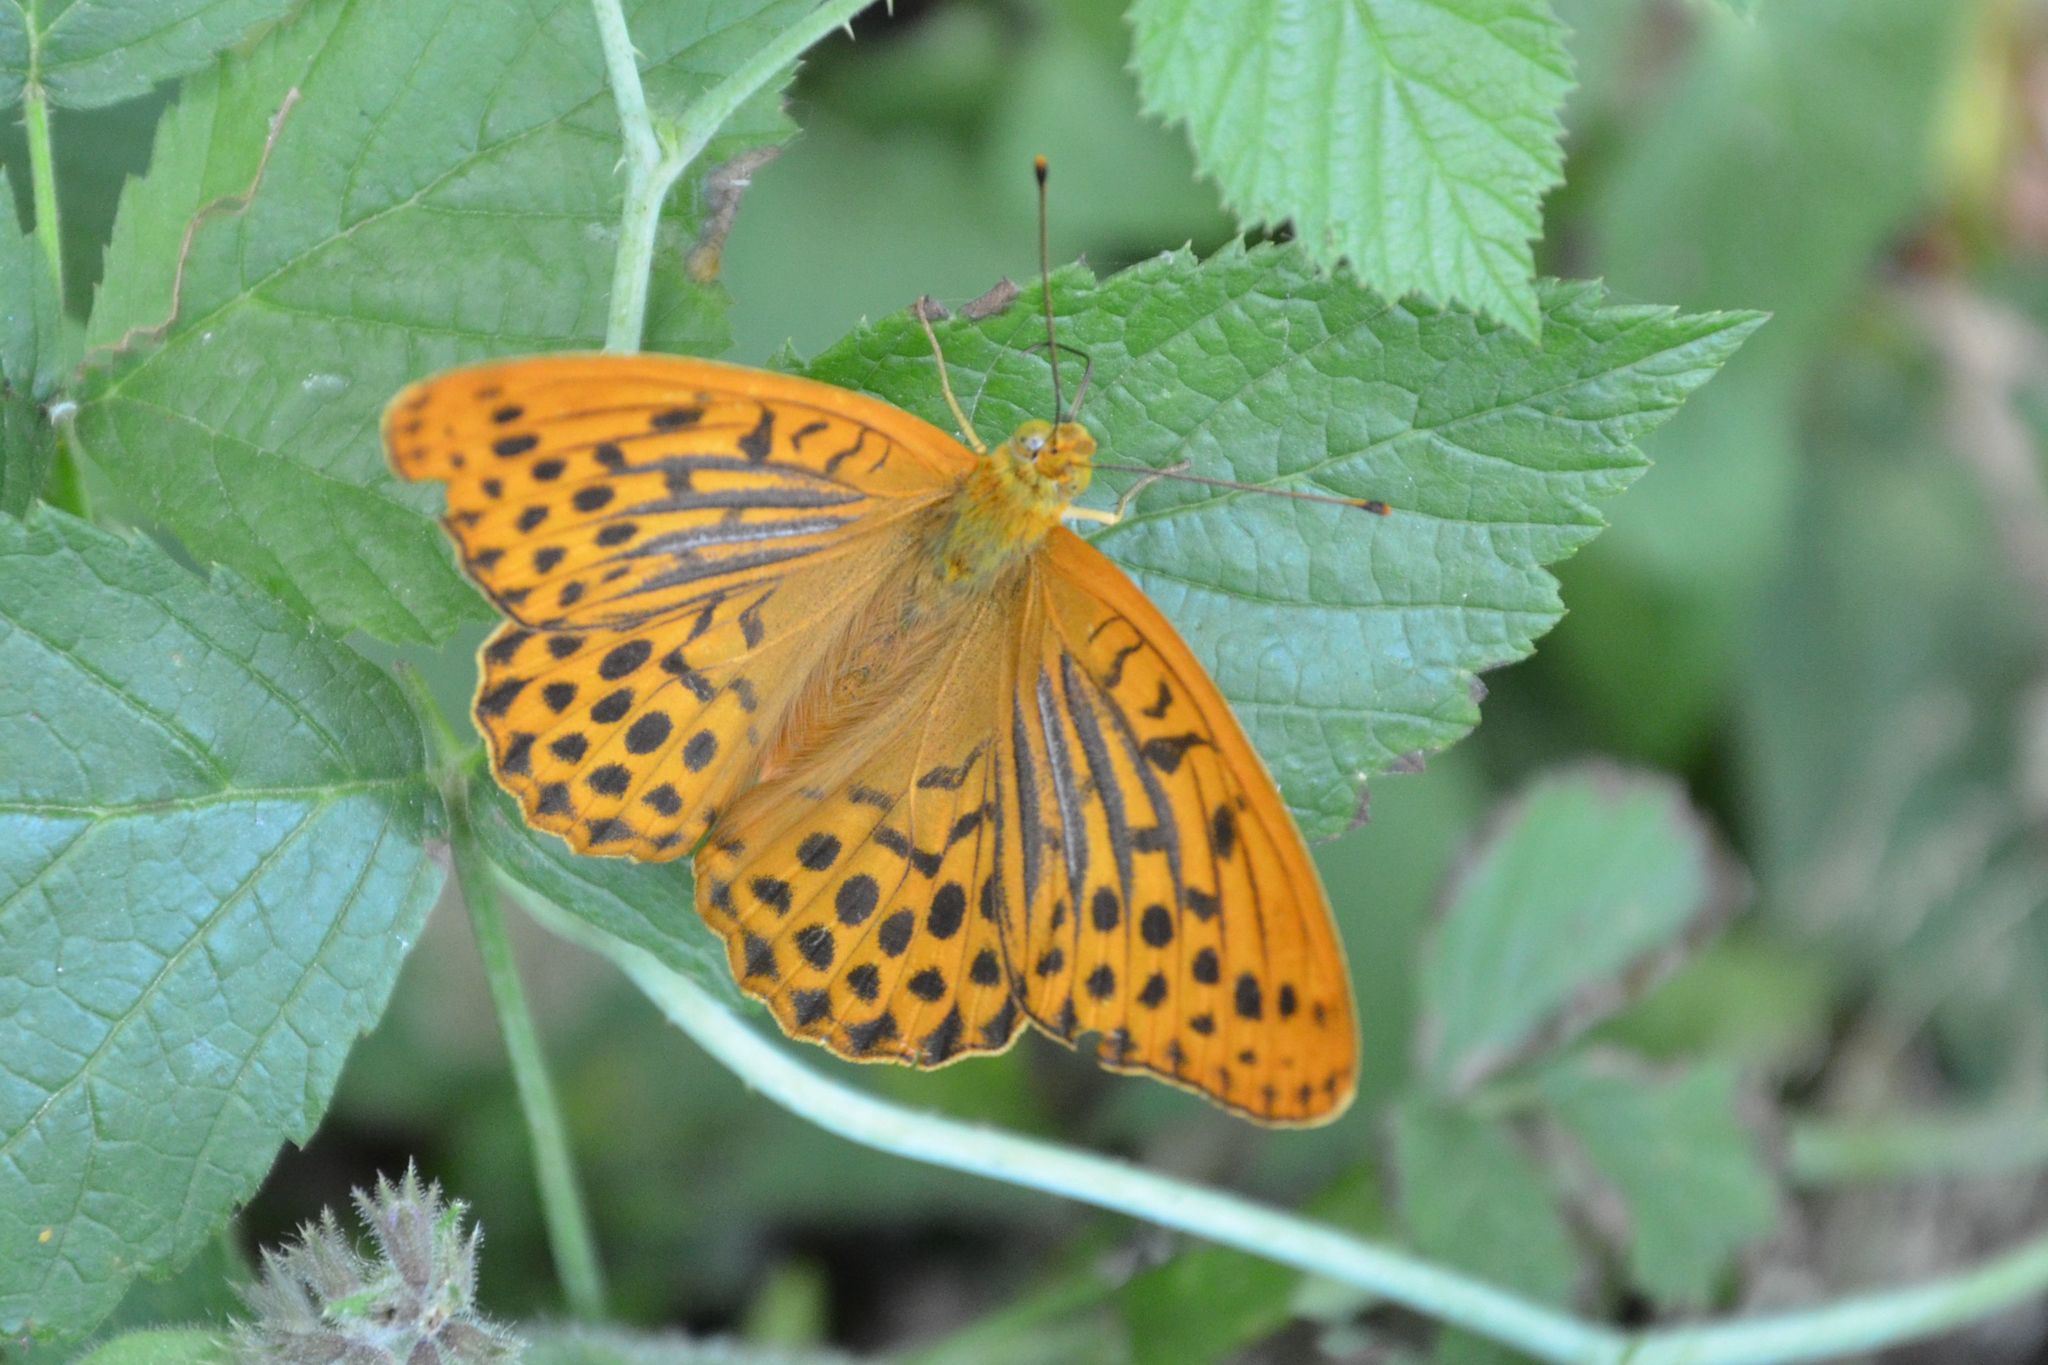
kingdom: Animalia
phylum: Arthropoda
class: Insecta
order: Lepidoptera
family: Nymphalidae
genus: Argynnis
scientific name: Argynnis paphia
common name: Silver-washed fritillary
